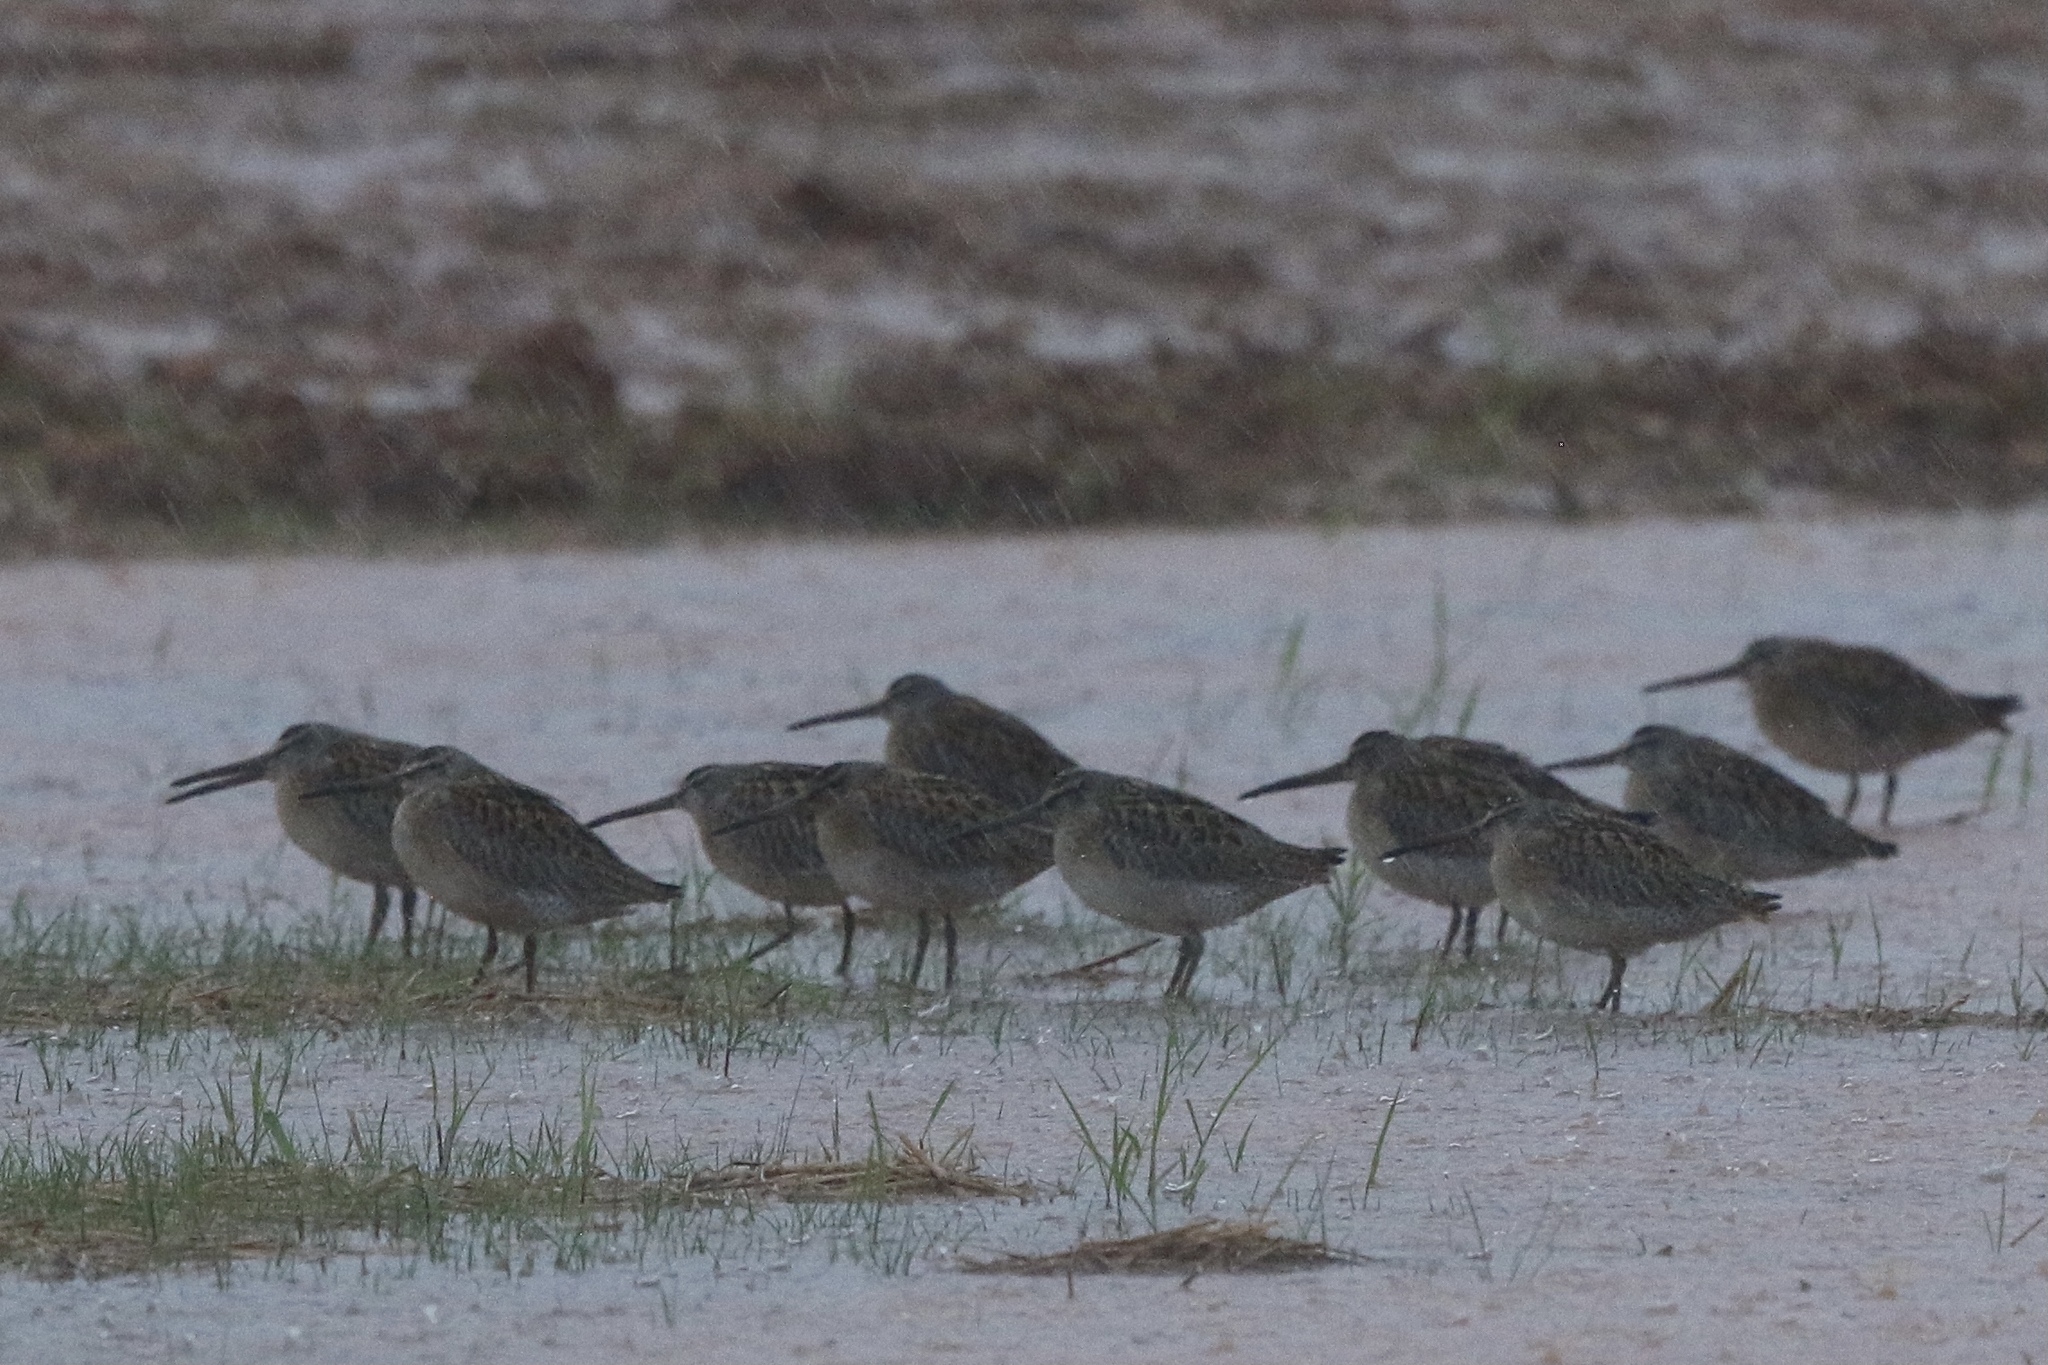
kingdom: Animalia
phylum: Chordata
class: Aves
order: Charadriiformes
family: Scolopacidae
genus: Limnodromus
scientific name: Limnodromus griseus
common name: Short-billed dowitcher
